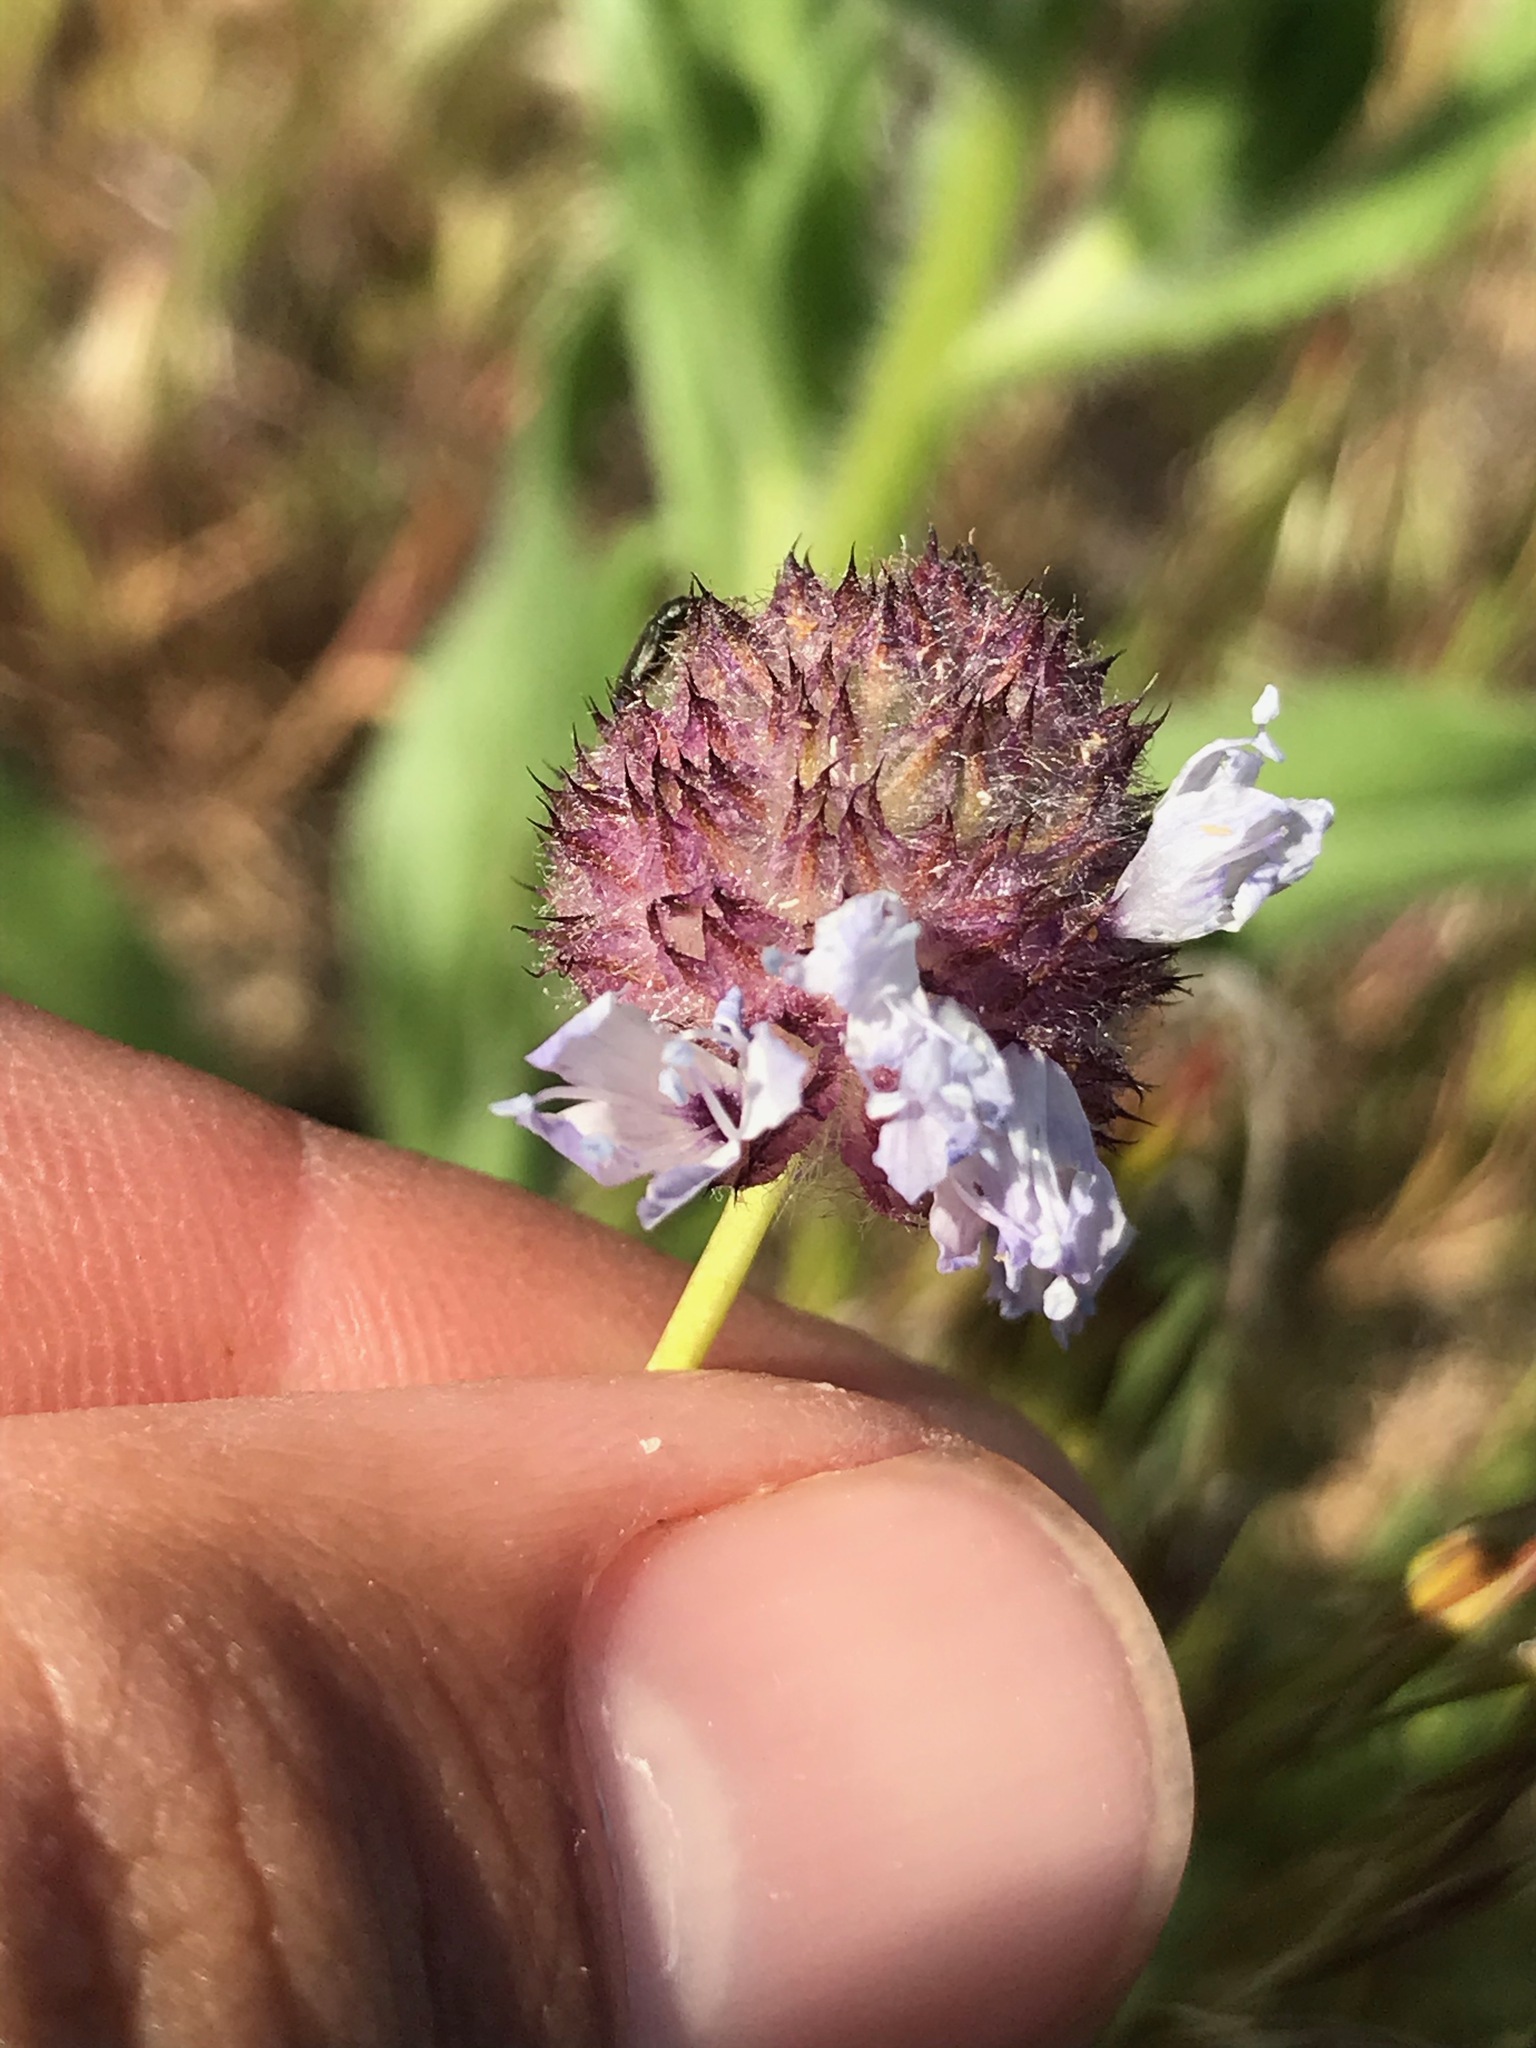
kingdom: Plantae
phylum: Tracheophyta
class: Magnoliopsida
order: Ericales
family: Polemoniaceae
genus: Gilia
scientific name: Gilia capitata
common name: Bluehead gilia
